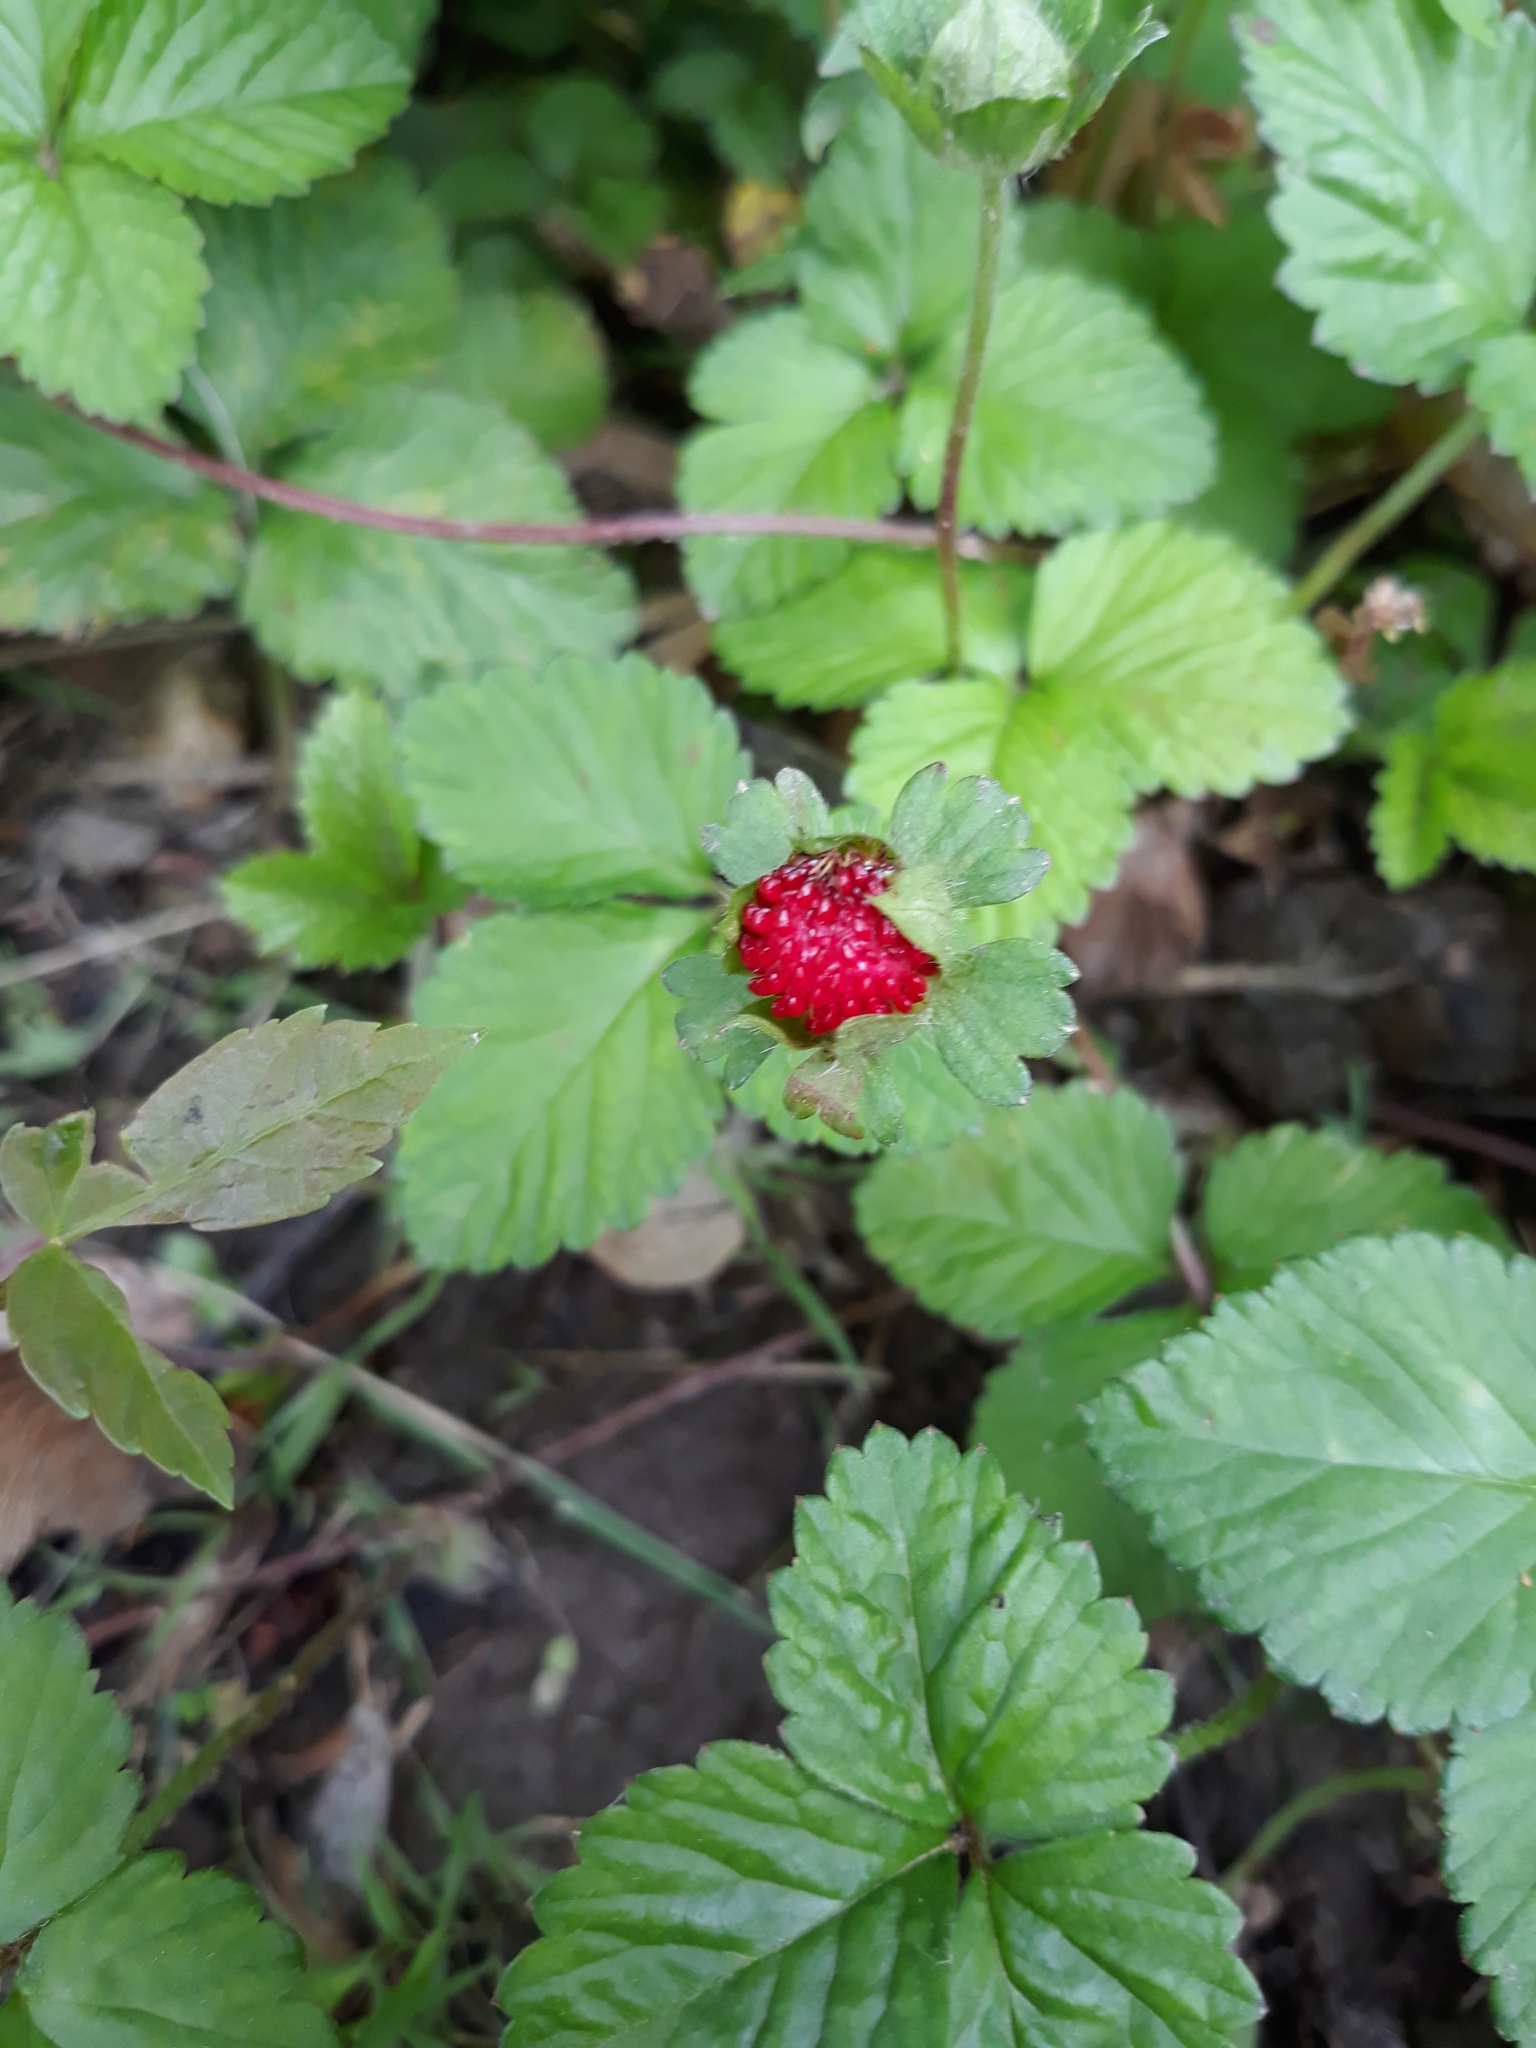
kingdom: Plantae
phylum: Tracheophyta
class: Magnoliopsida
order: Rosales
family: Rosaceae
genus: Potentilla
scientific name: Potentilla indica
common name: Yellow-flowered strawberry
